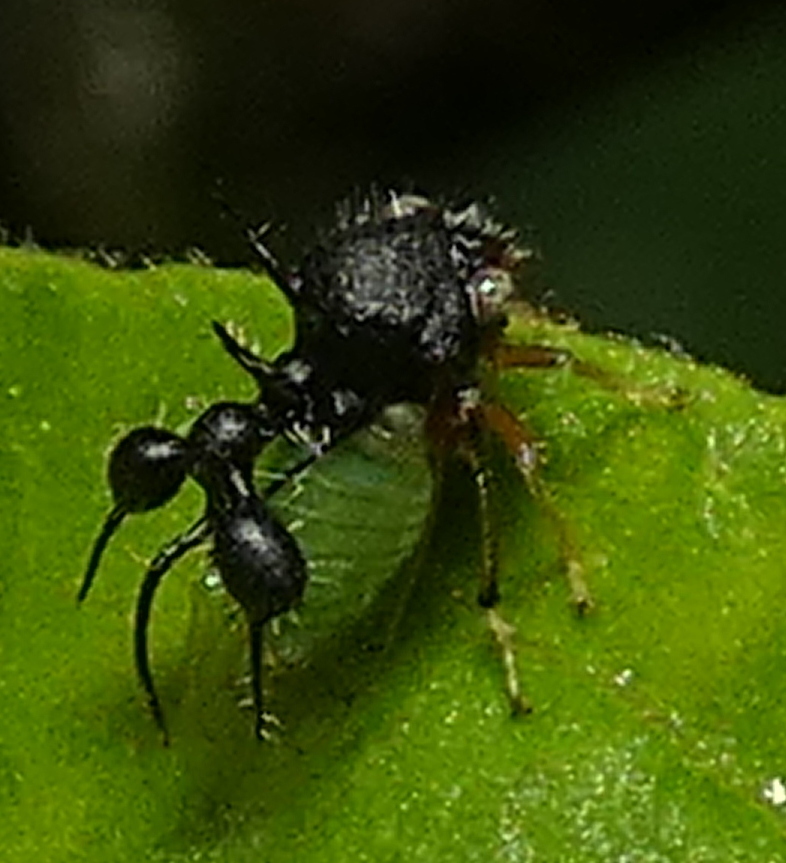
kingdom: Animalia
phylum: Arthropoda
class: Insecta
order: Hemiptera
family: Membracidae
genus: Cyphonia
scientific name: Cyphonia clavata
